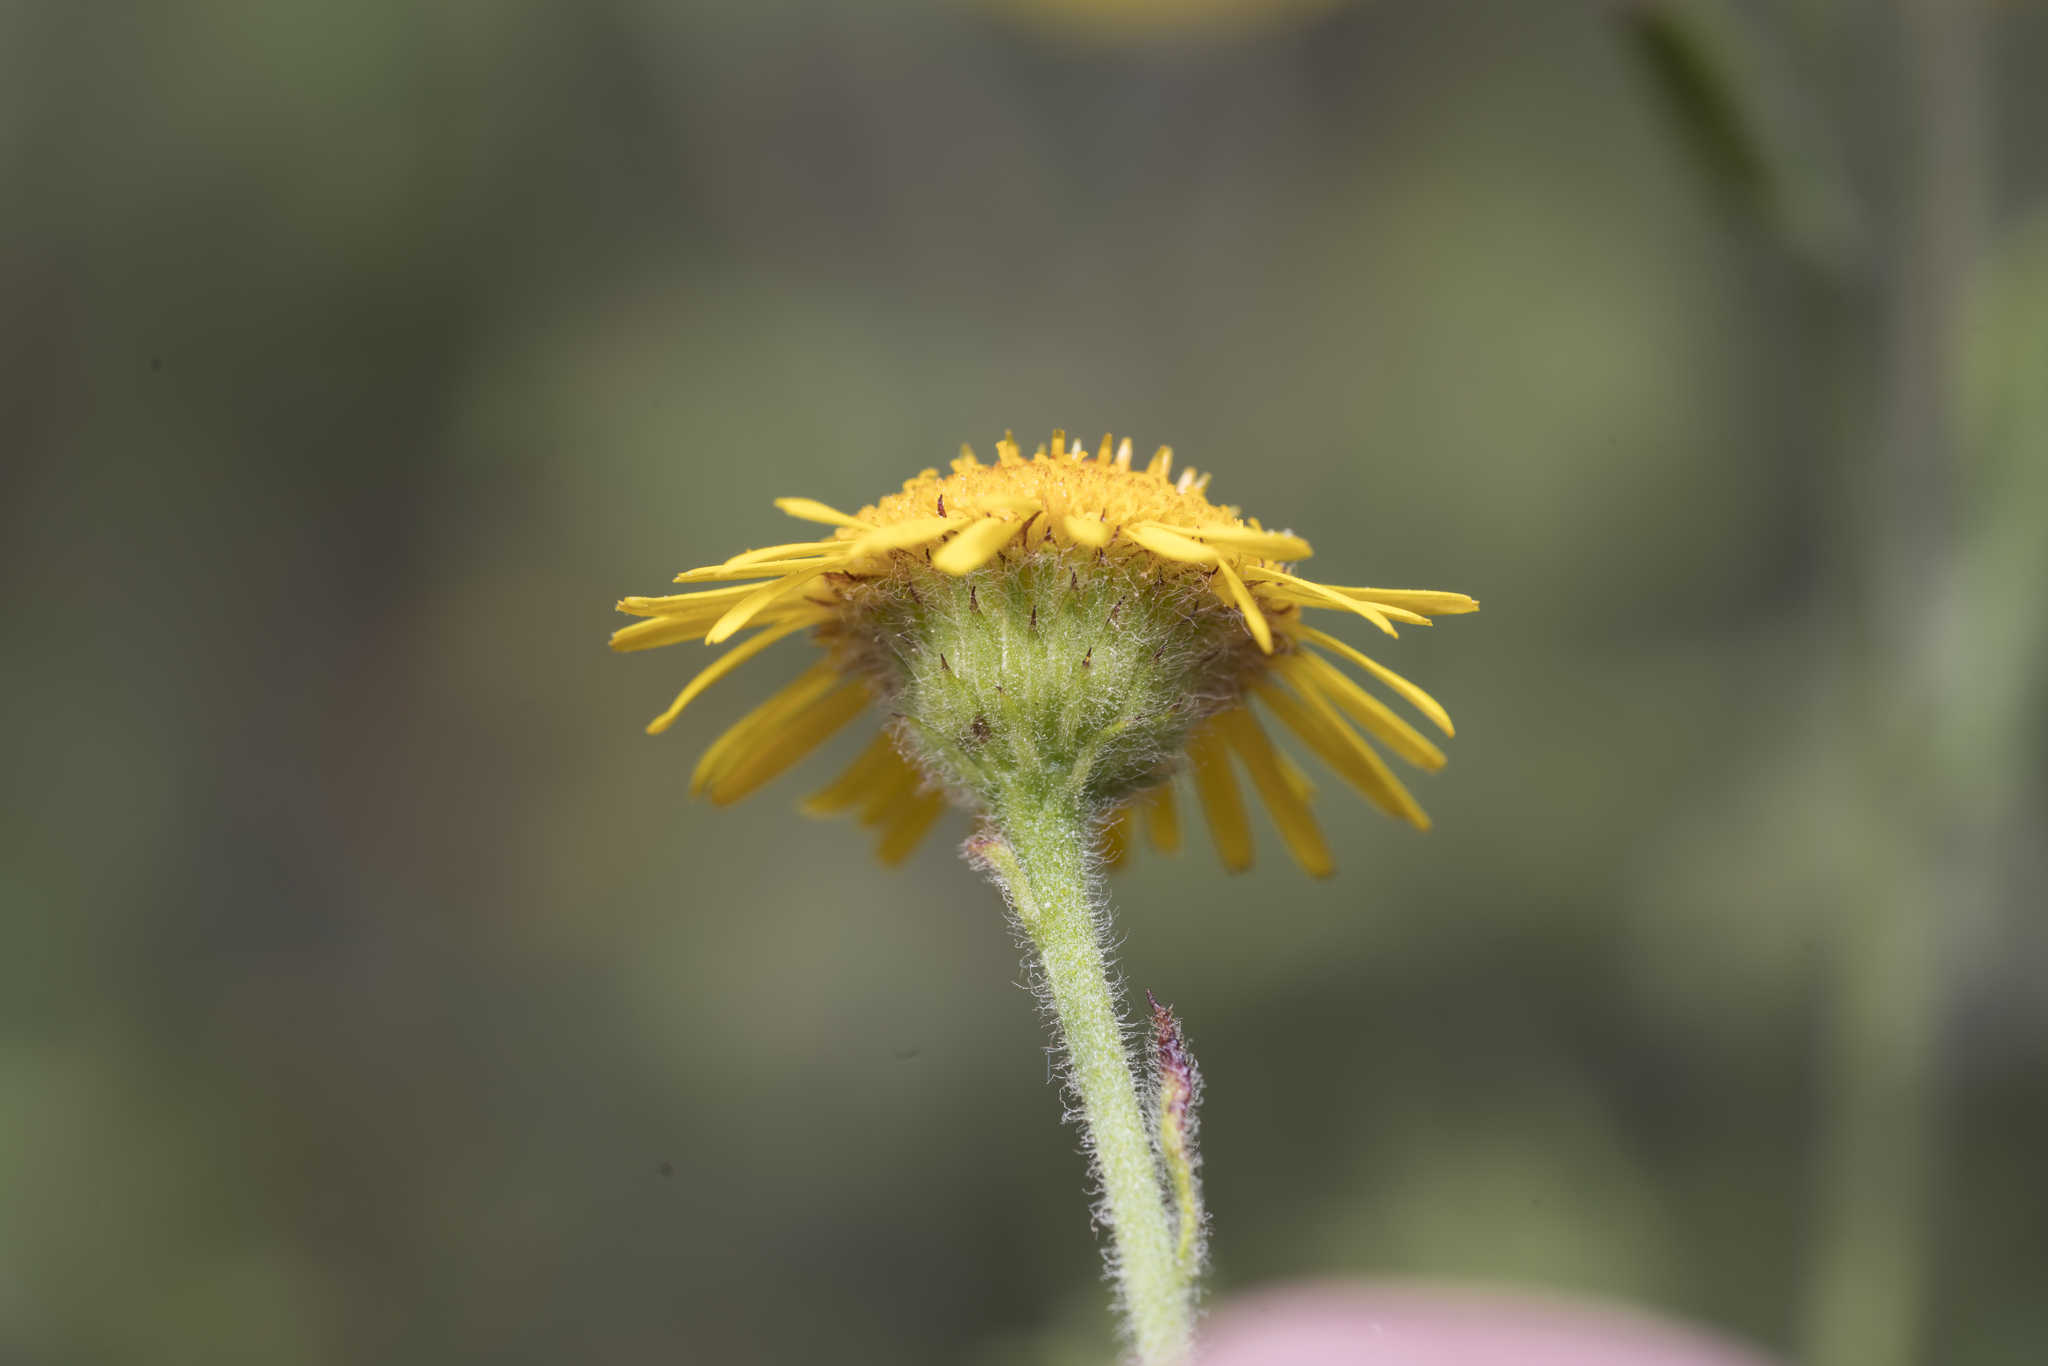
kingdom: Plantae
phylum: Tracheophyta
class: Magnoliopsida
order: Asterales
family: Asteraceae
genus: Pulicaria
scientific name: Pulicaria dysenterica
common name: Common fleabane
